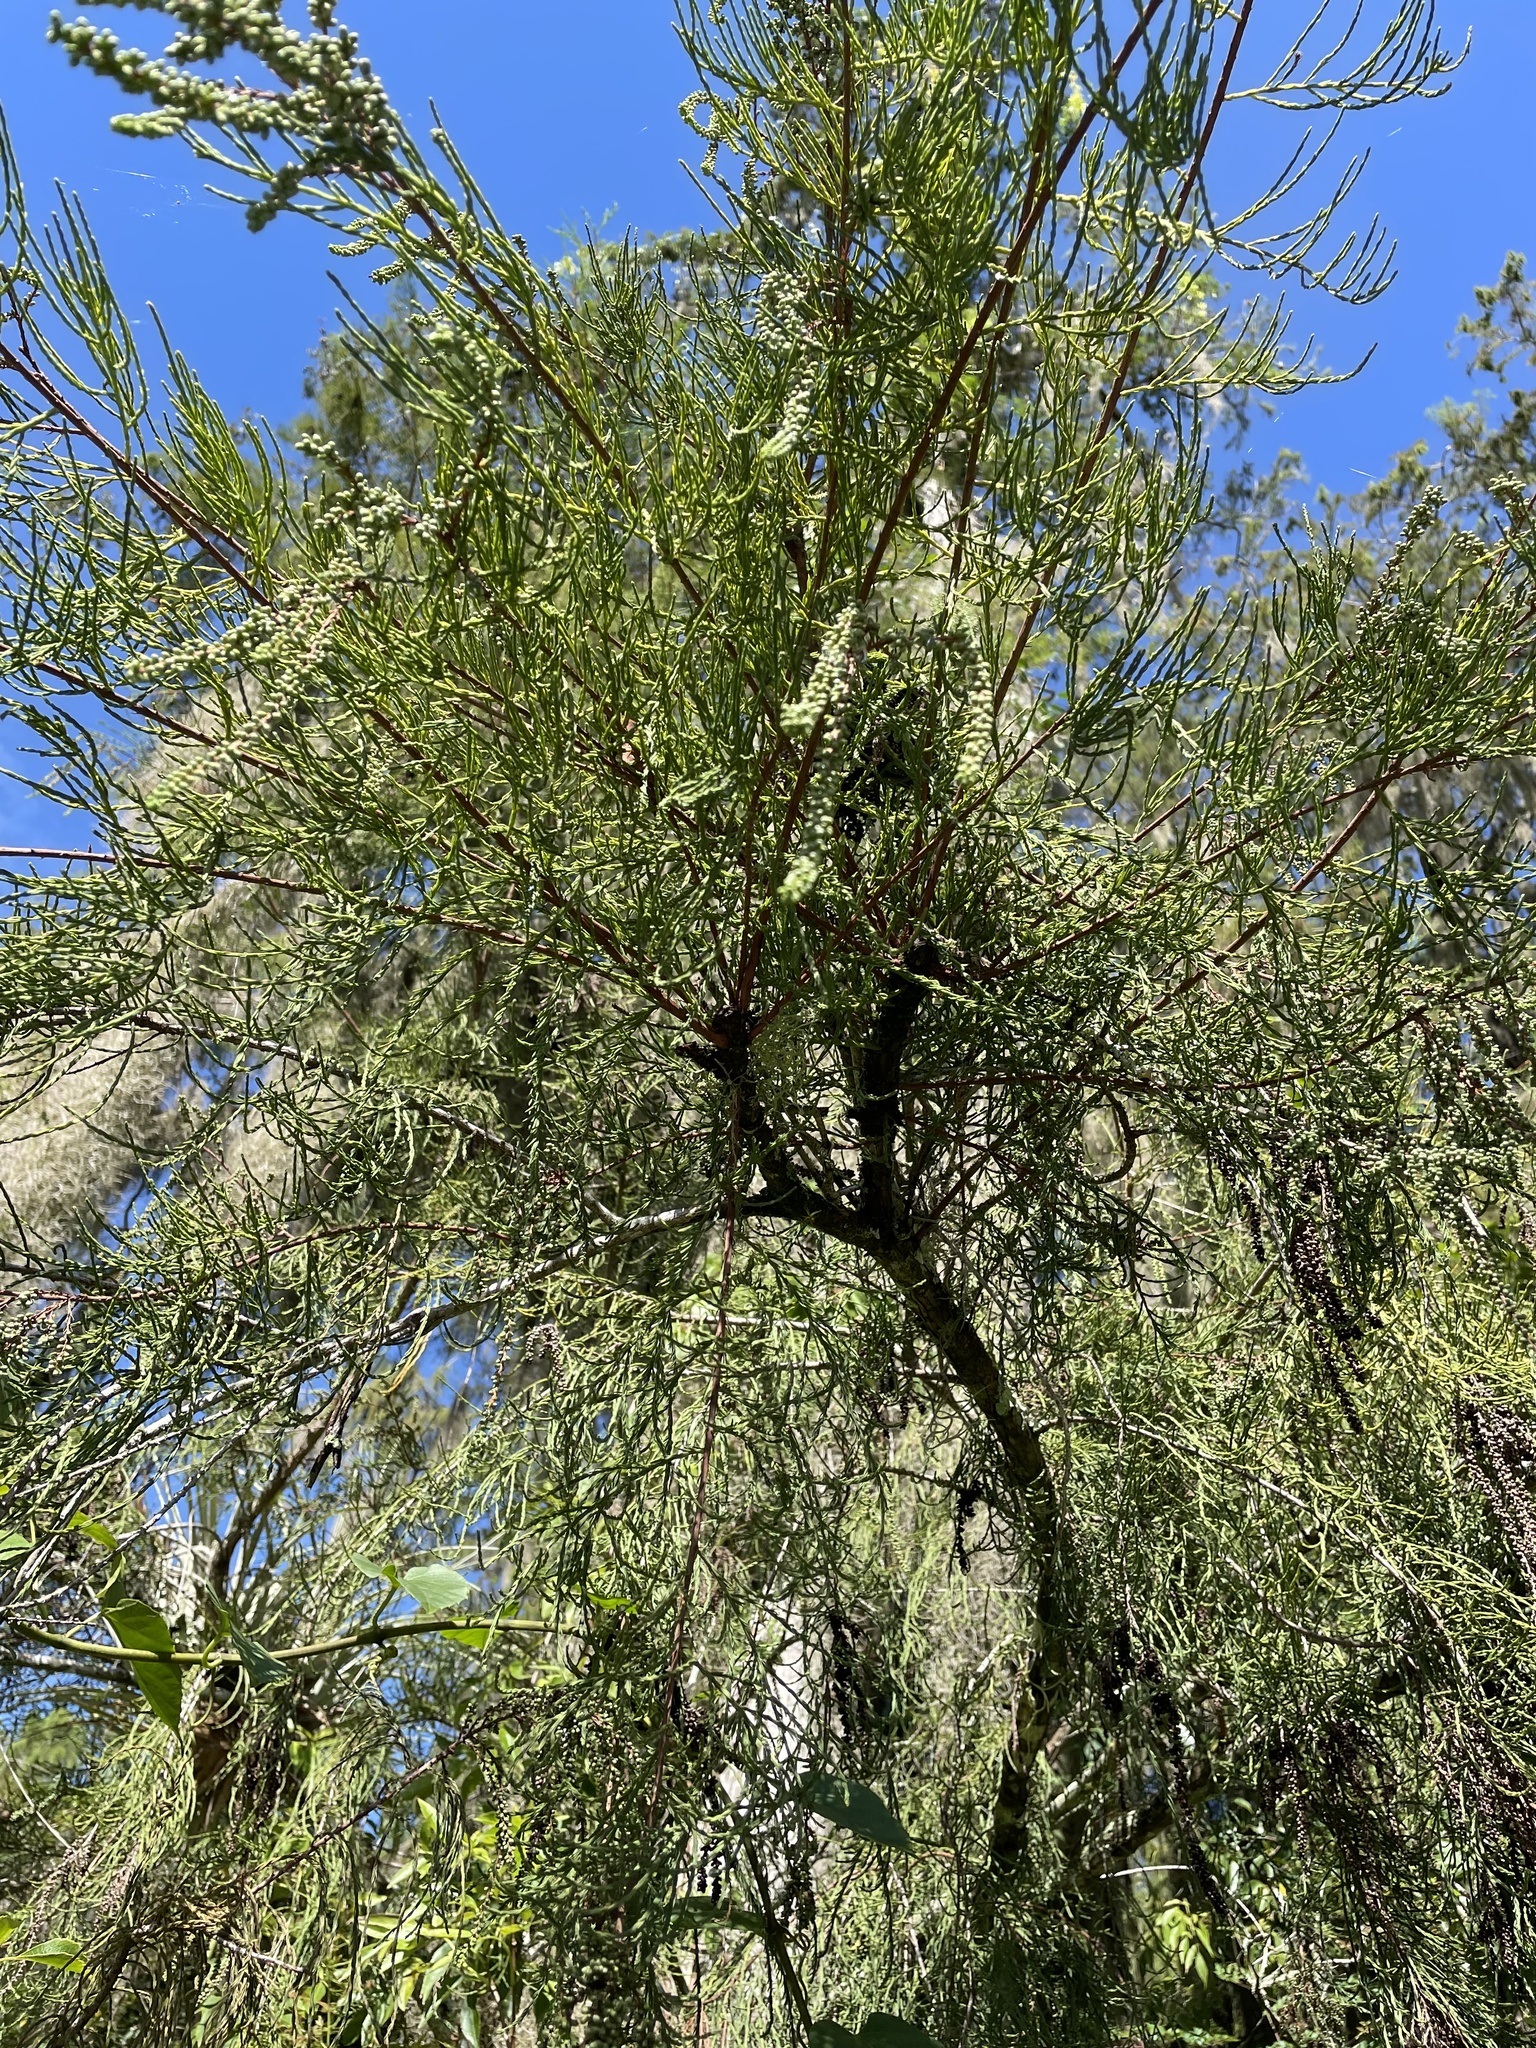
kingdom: Plantae
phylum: Tracheophyta
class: Pinopsida
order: Pinales
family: Cupressaceae
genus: Taxodium
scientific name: Taxodium distichum
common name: Bald cypress
